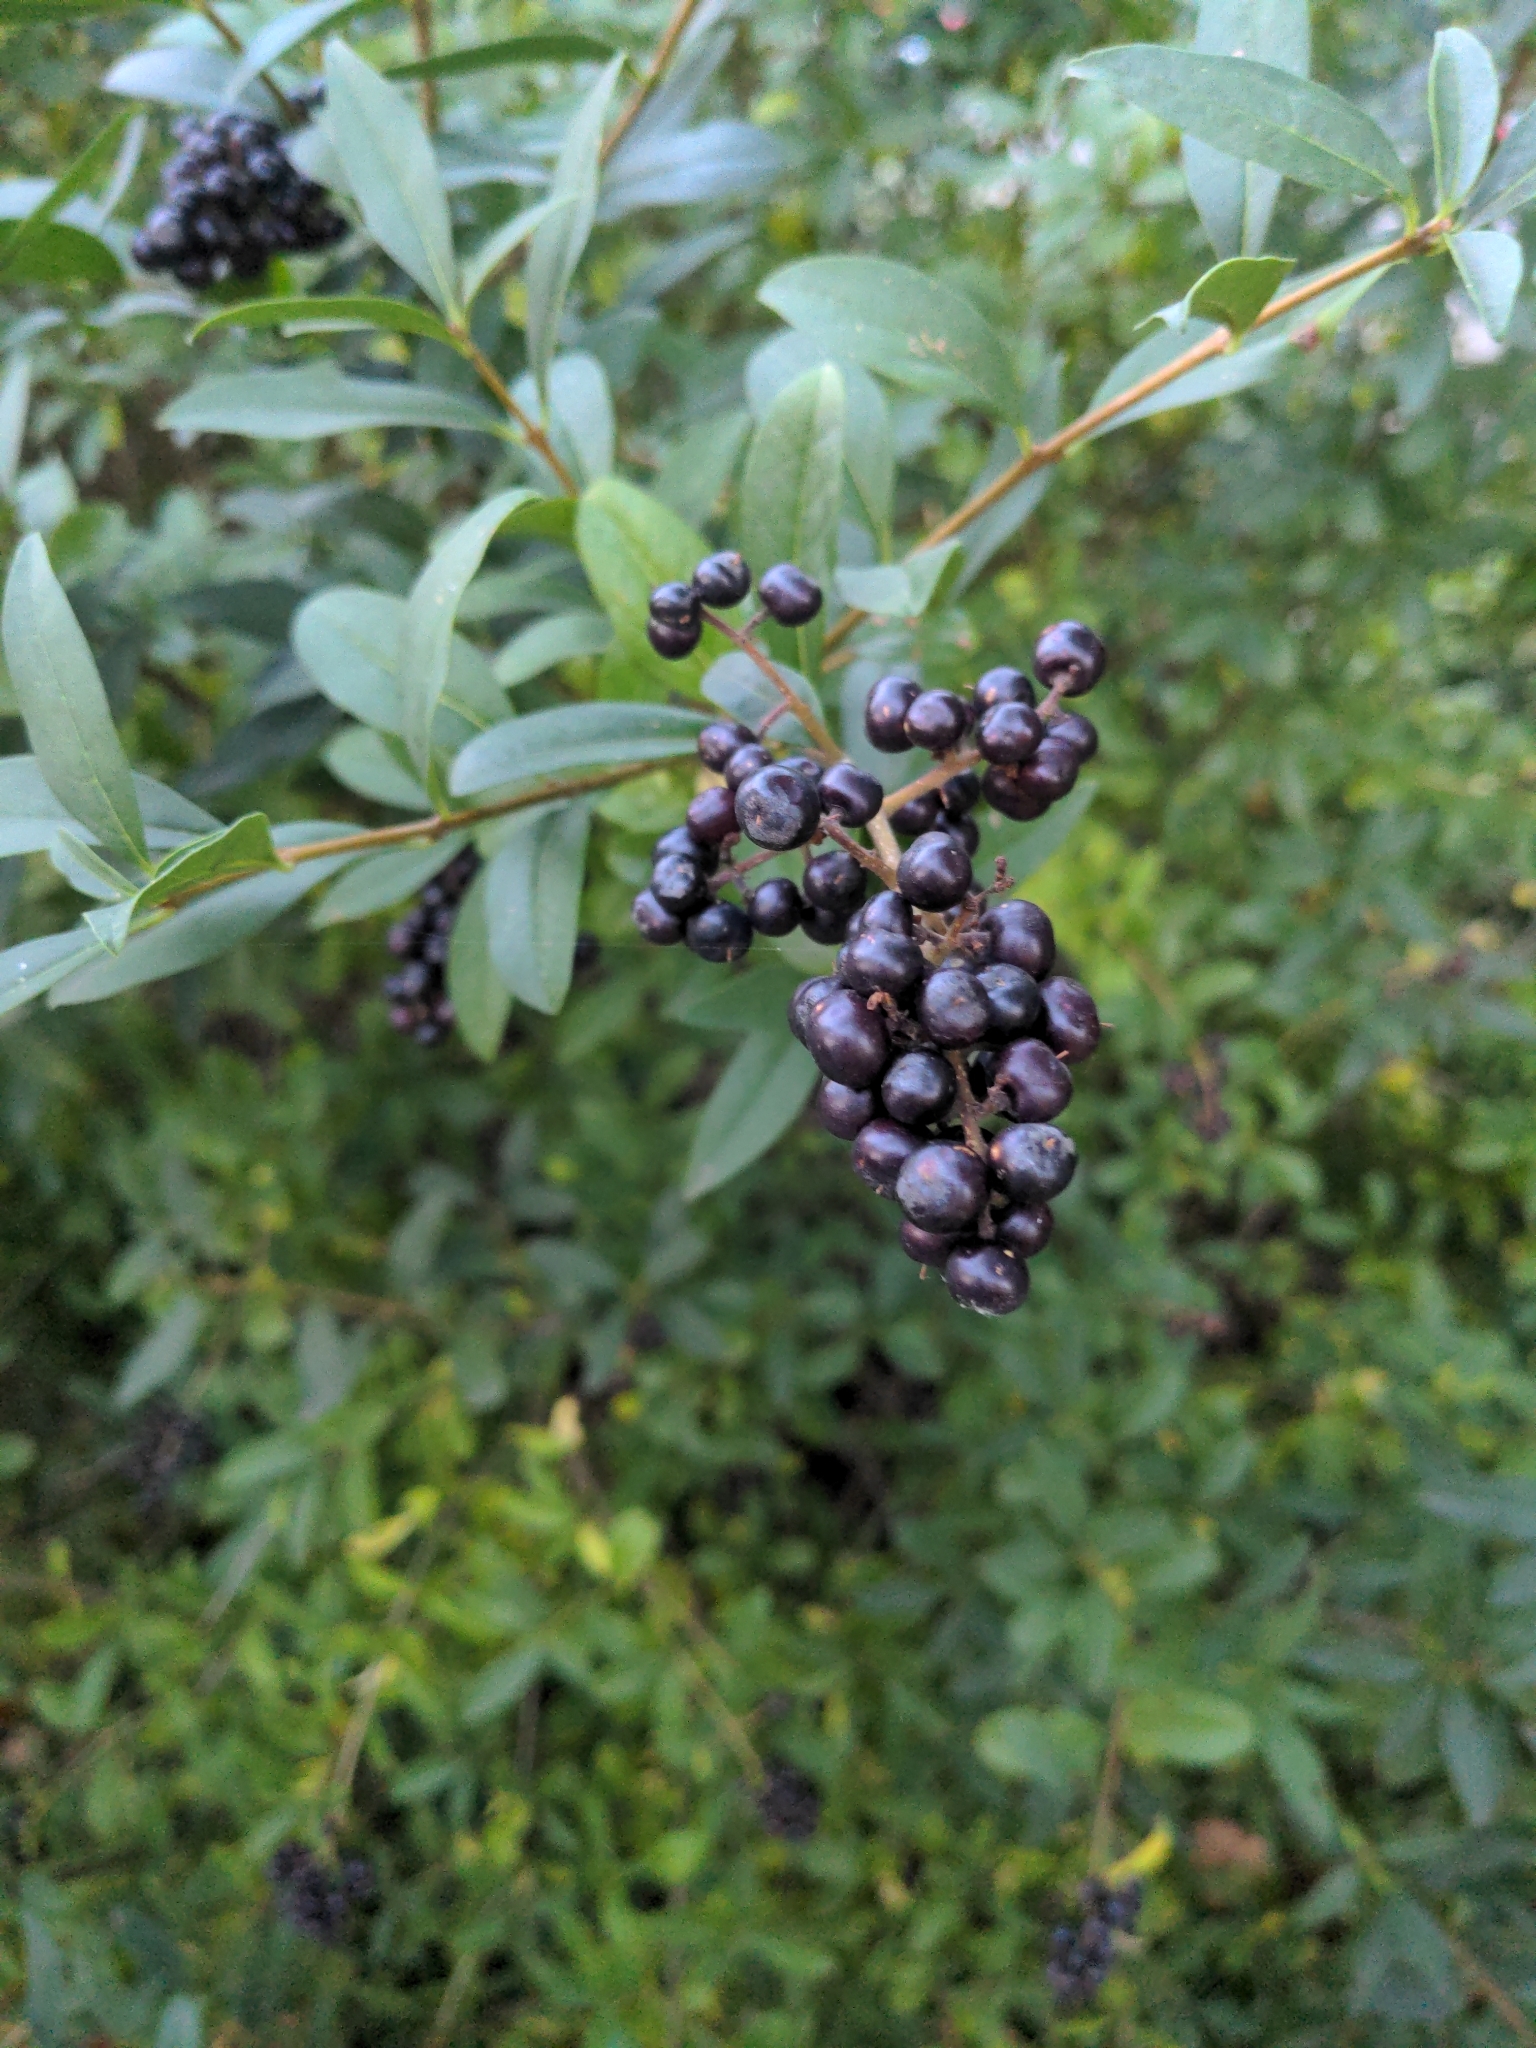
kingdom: Plantae
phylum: Tracheophyta
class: Magnoliopsida
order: Lamiales
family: Oleaceae
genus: Ligustrum
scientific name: Ligustrum vulgare
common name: Wild privet
